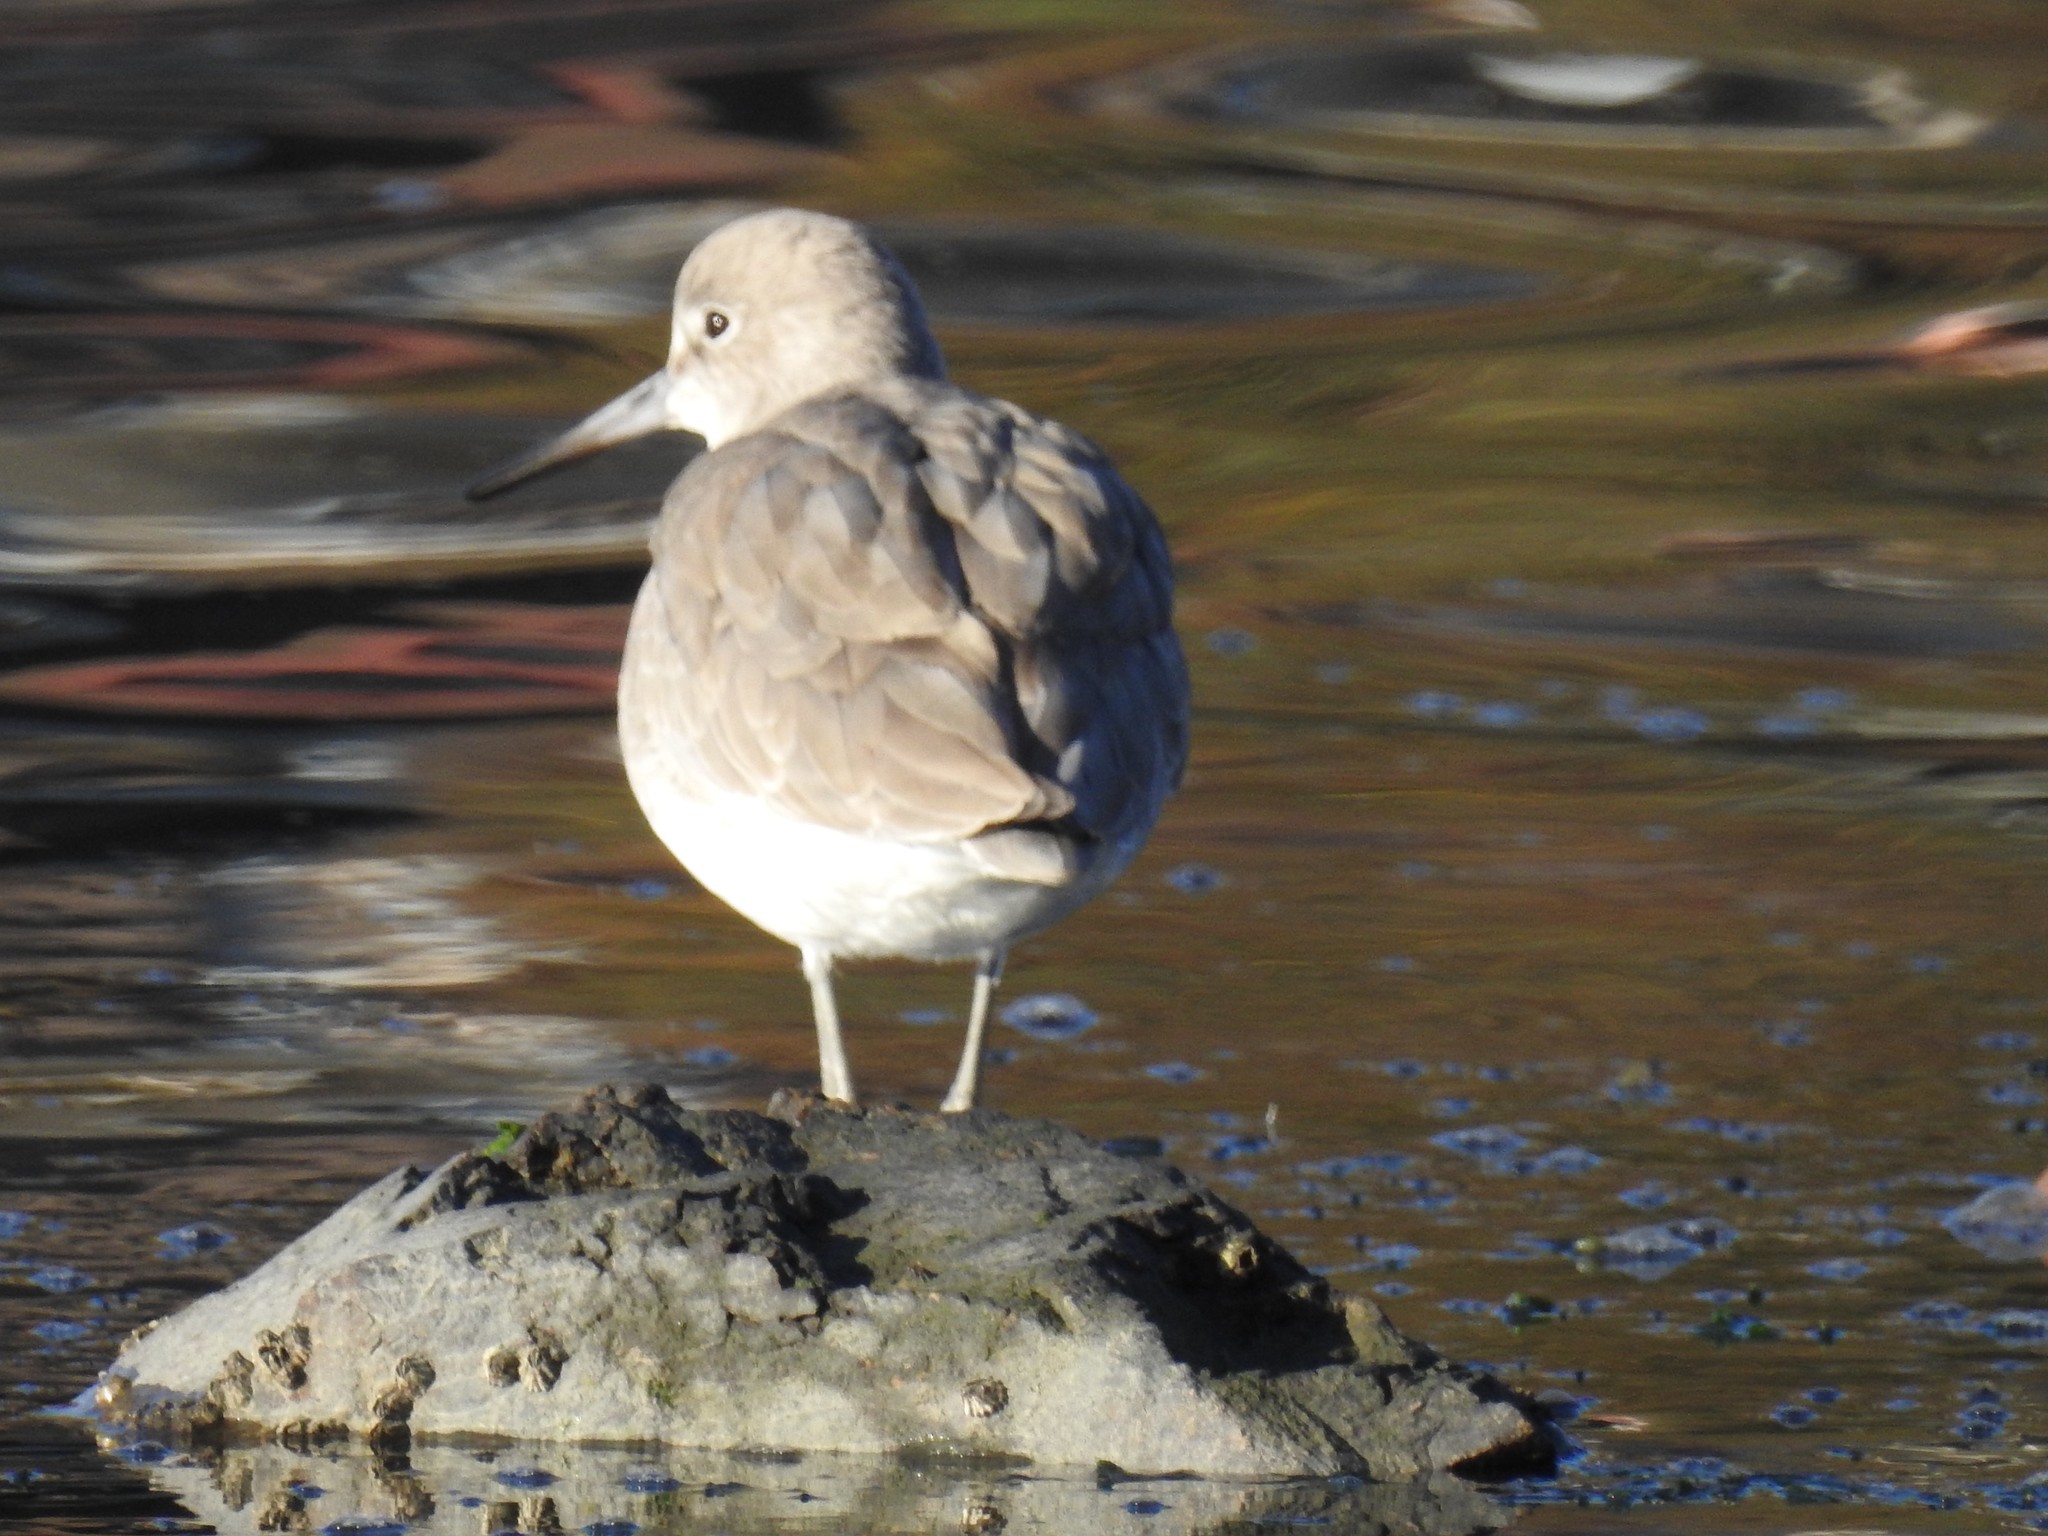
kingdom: Animalia
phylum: Chordata
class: Aves
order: Charadriiformes
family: Scolopacidae
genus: Tringa
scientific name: Tringa semipalmata
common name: Willet
